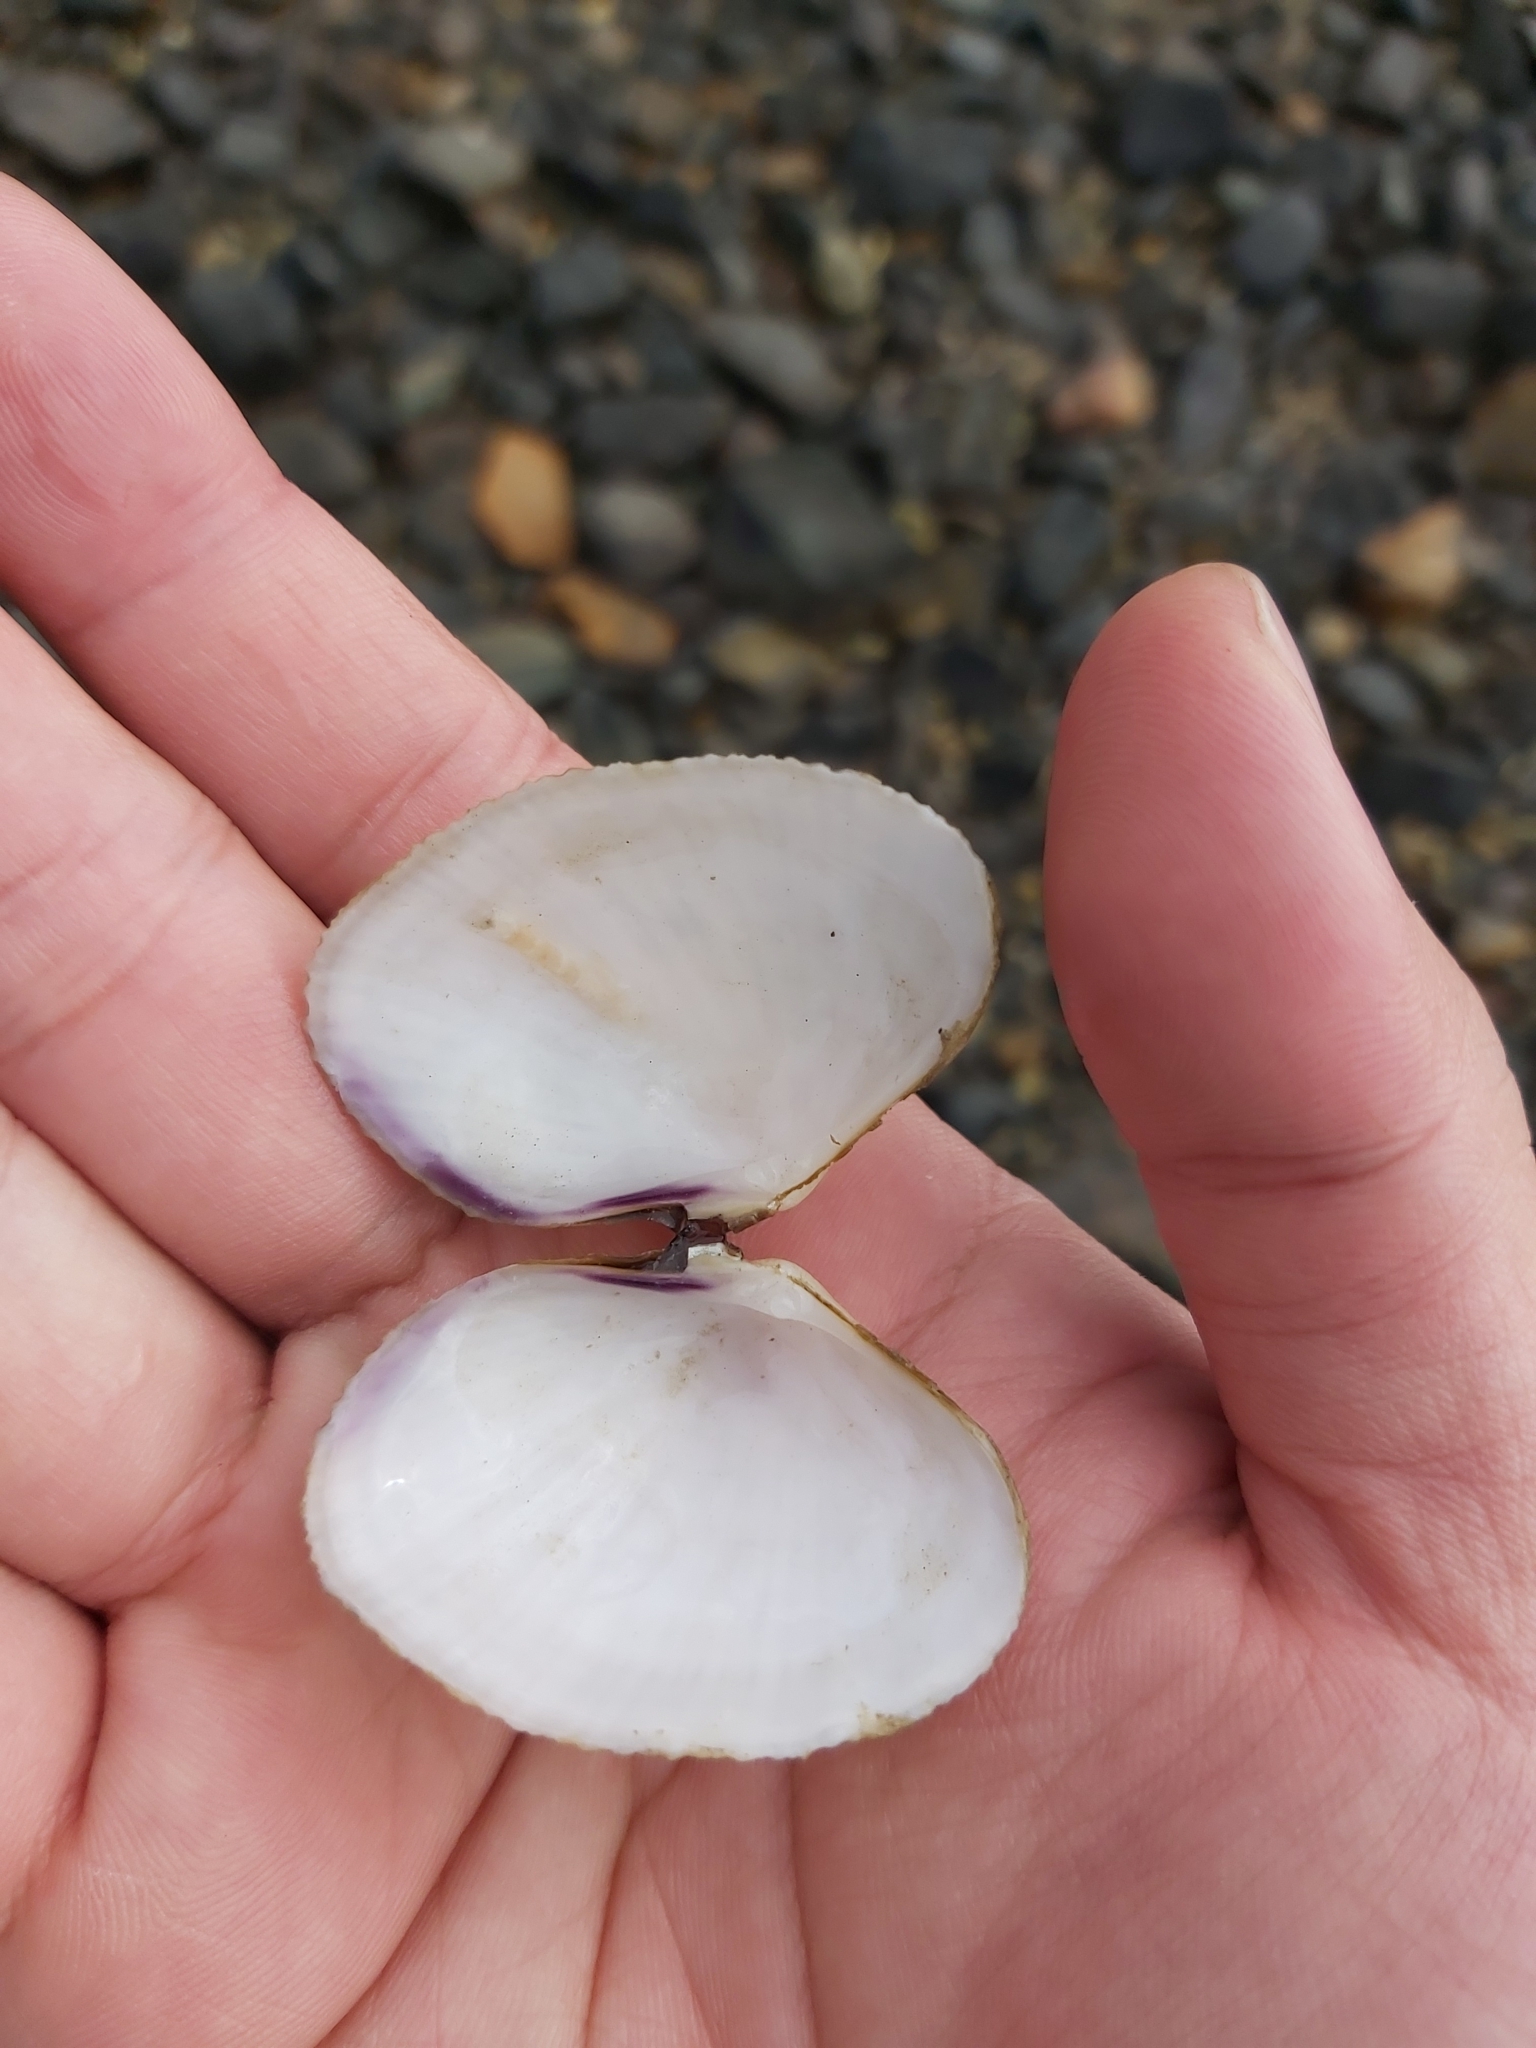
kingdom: Animalia
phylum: Mollusca
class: Bivalvia
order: Cardiida
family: Psammobiidae
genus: Asaphis
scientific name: Asaphis violascens
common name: Pacific asaphis
